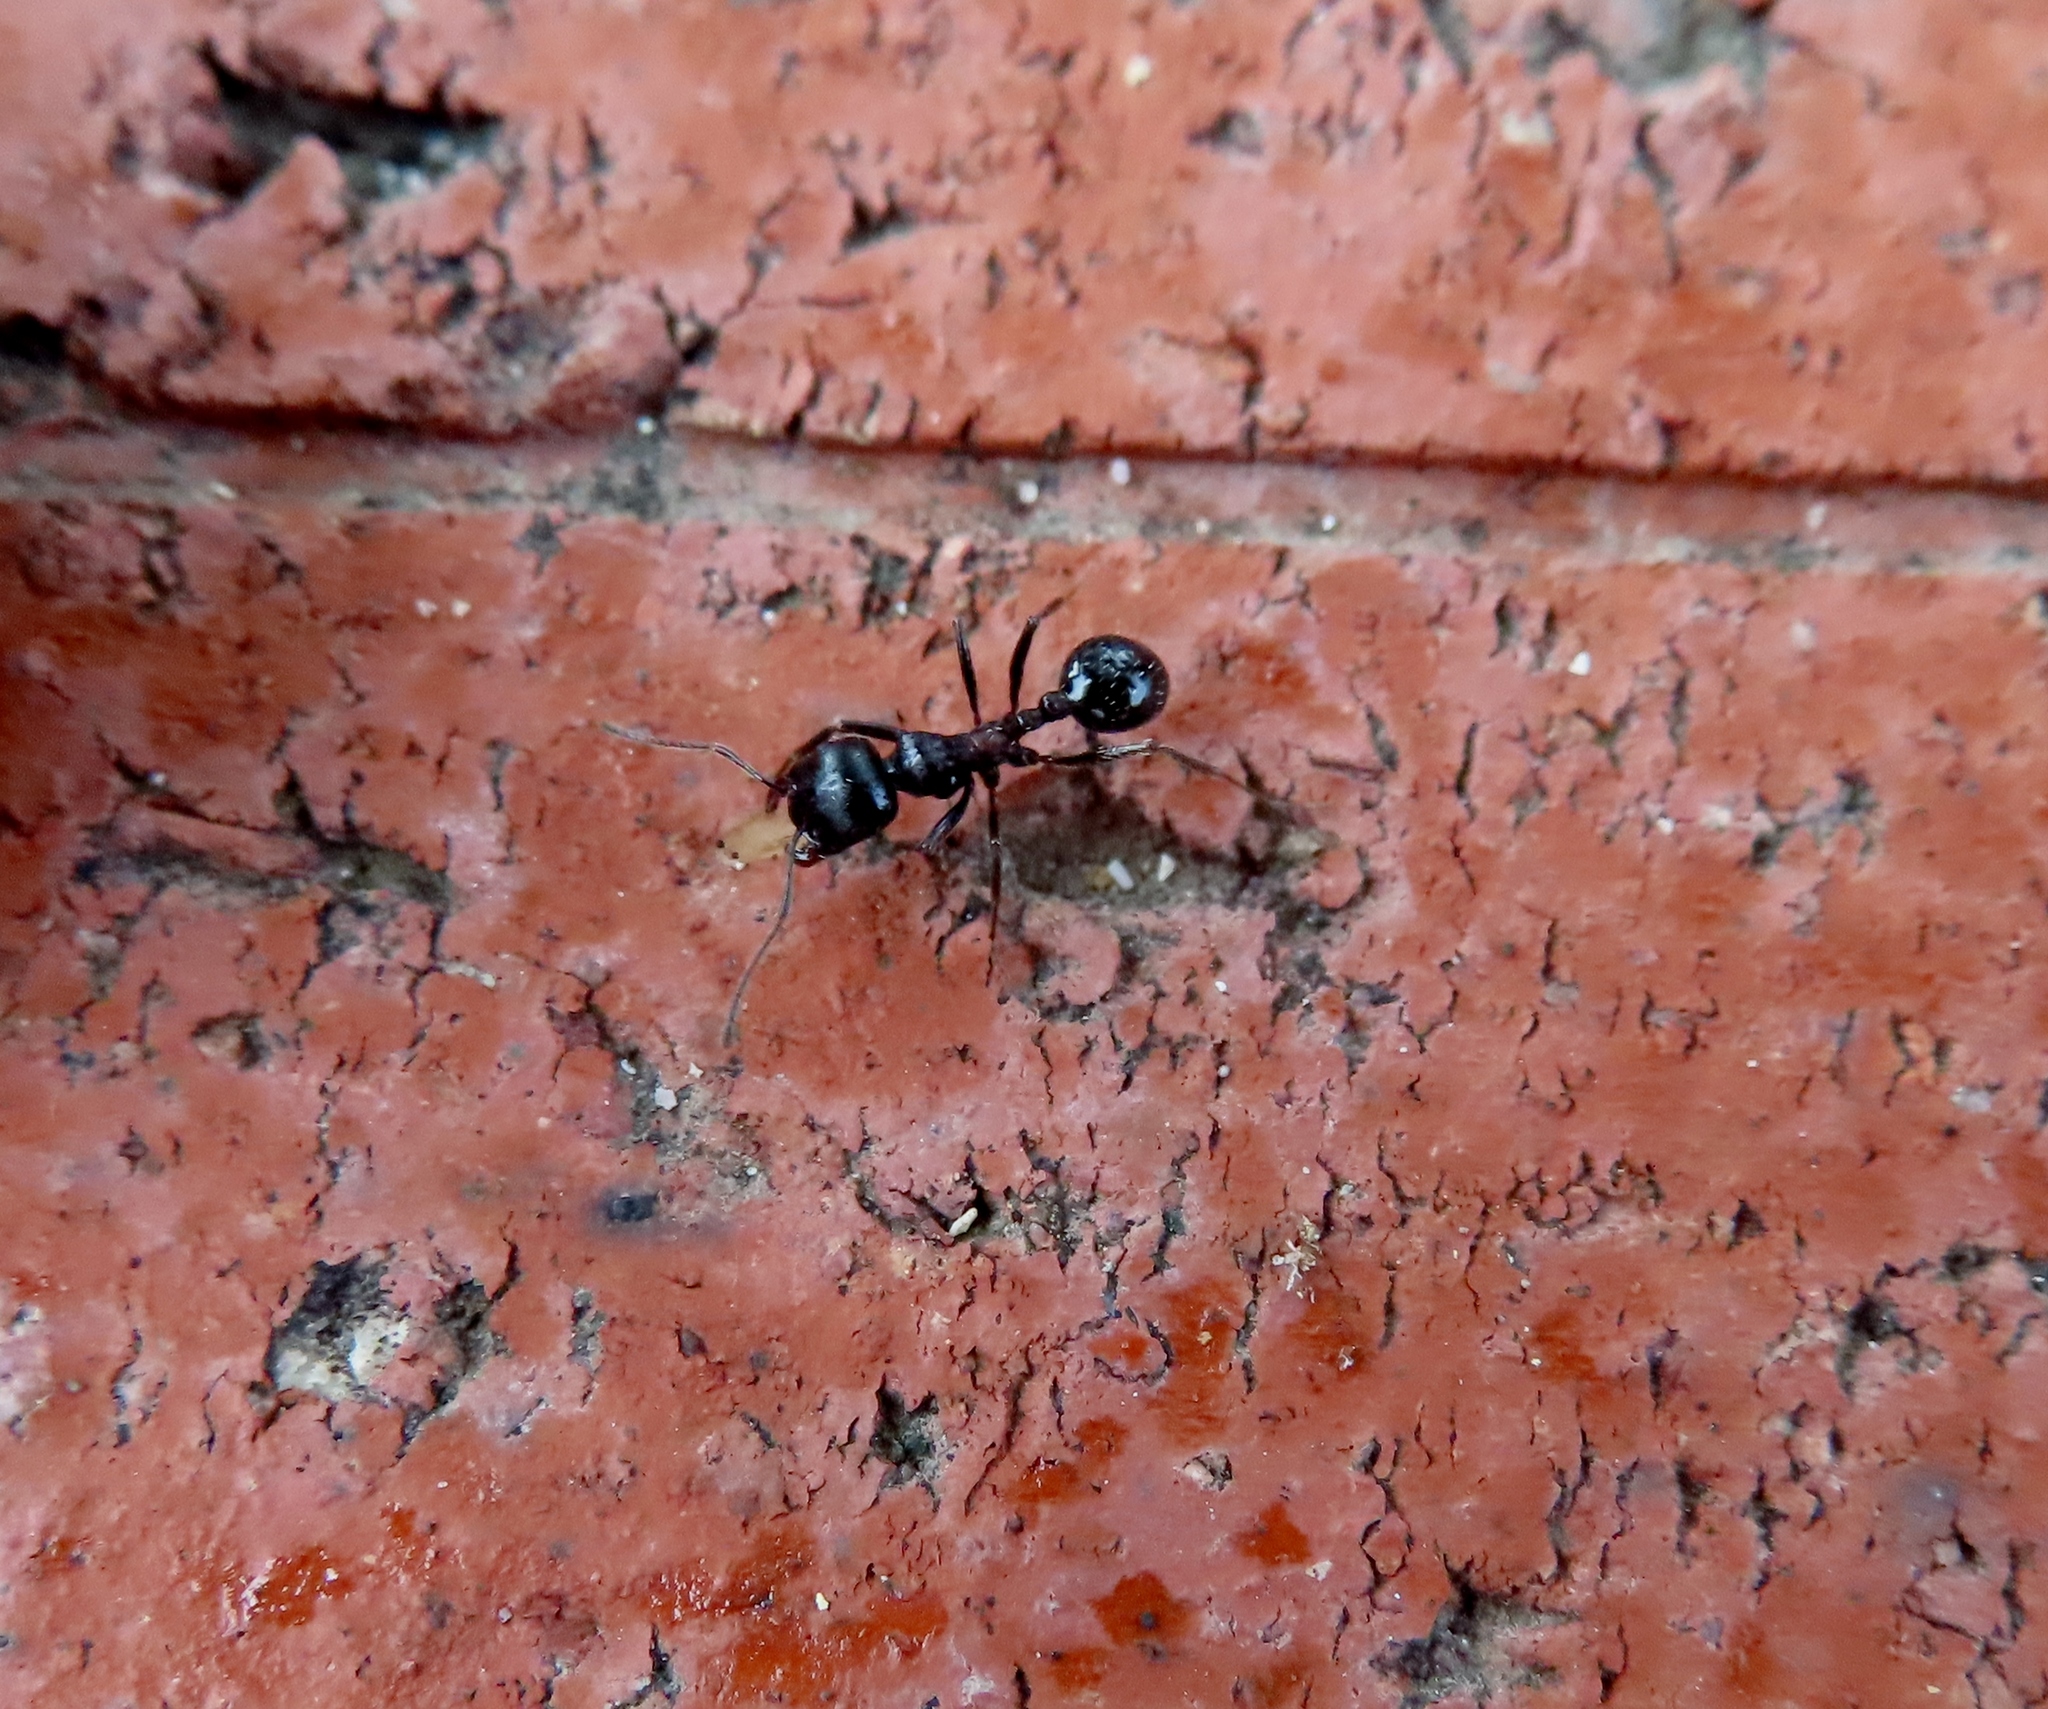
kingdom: Animalia
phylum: Arthropoda
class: Insecta
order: Hymenoptera
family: Formicidae
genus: Messor
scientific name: Messor capensis
